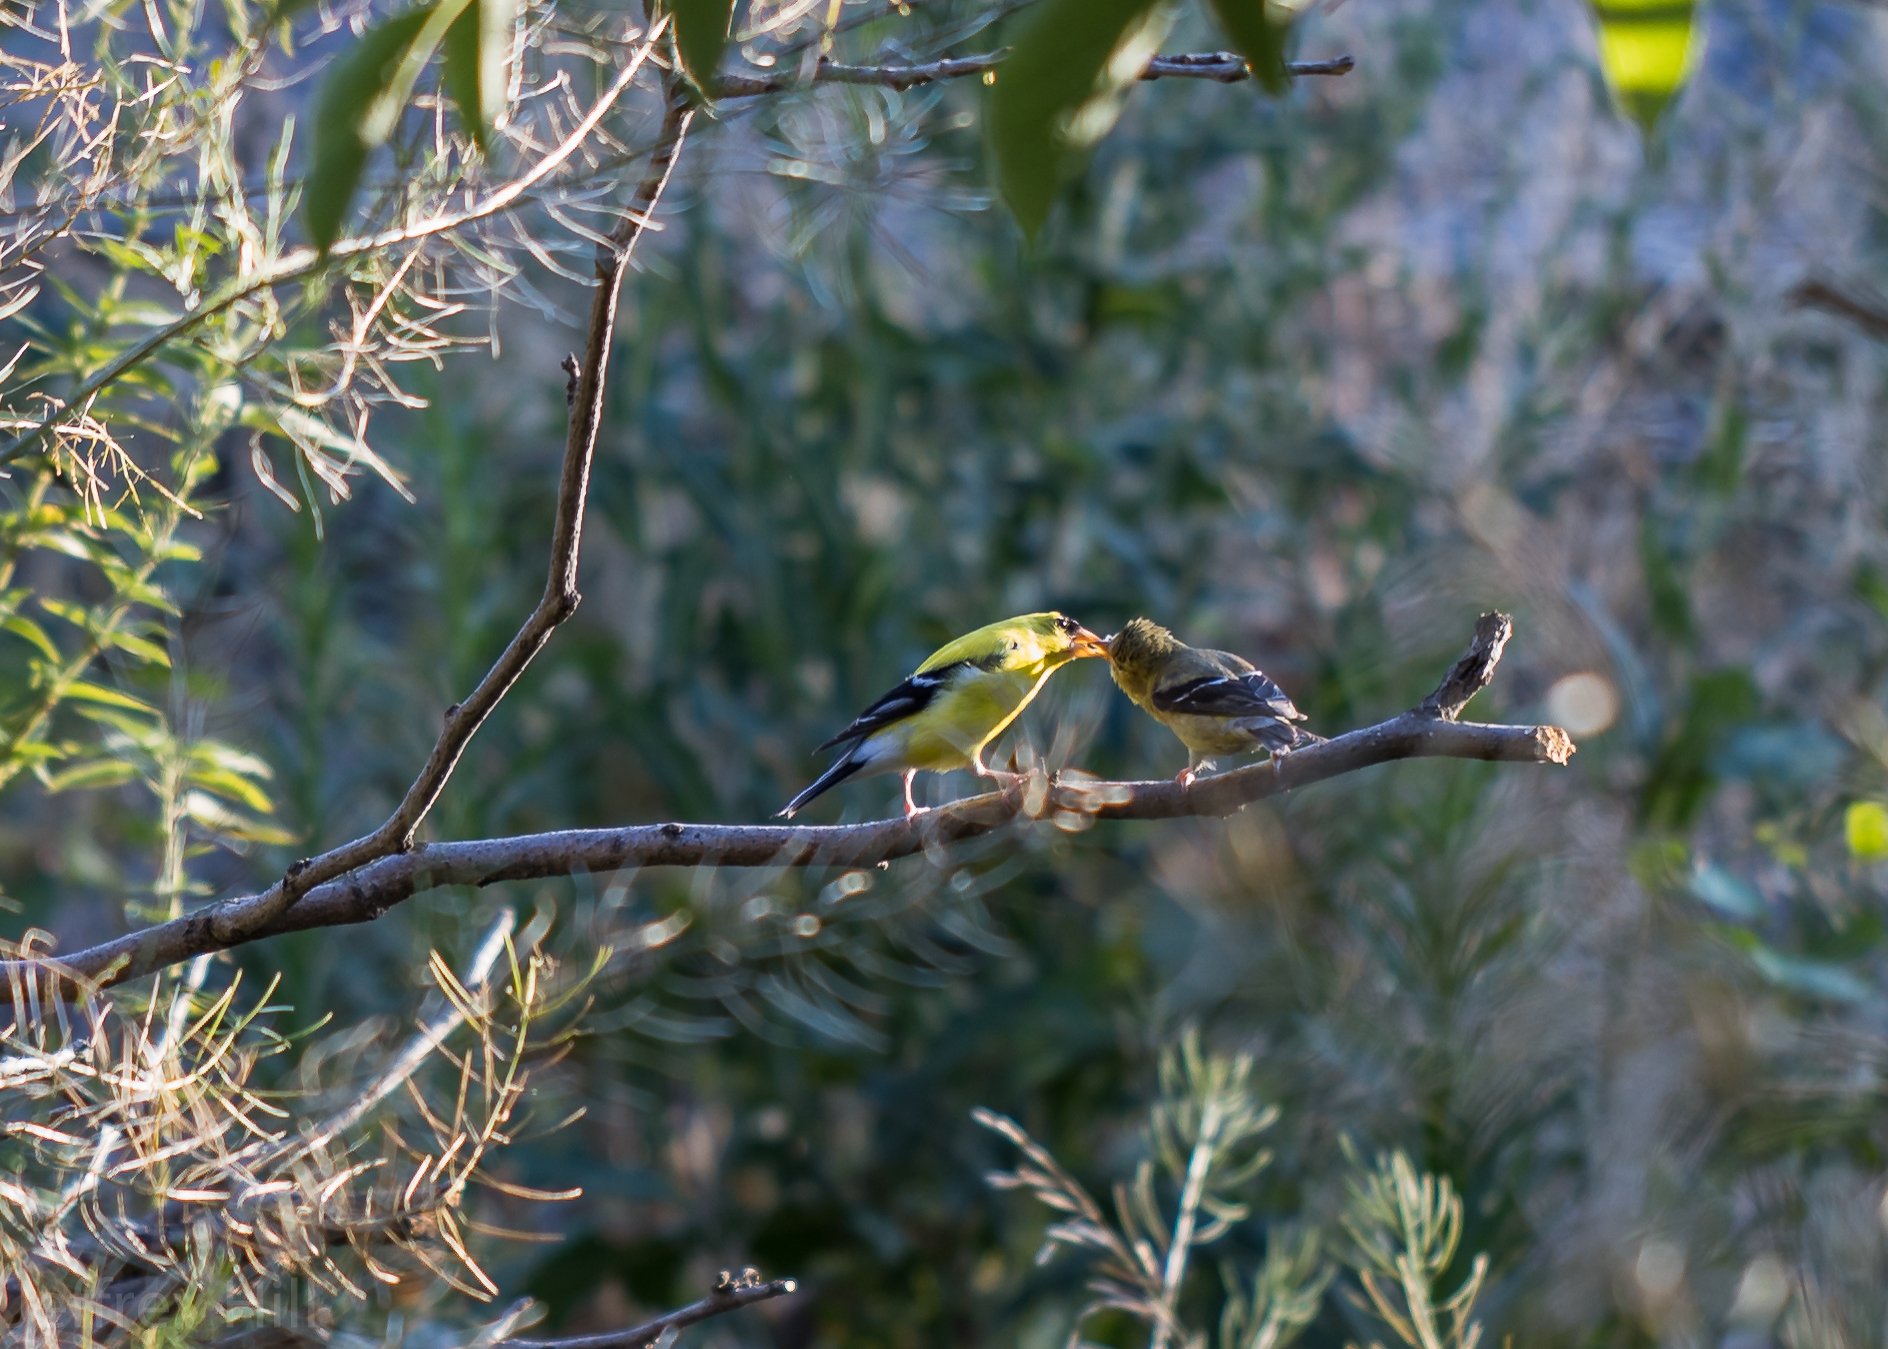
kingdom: Animalia
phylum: Chordata
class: Aves
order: Passeriformes
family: Fringillidae
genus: Spinus
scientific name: Spinus tristis
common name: American goldfinch
